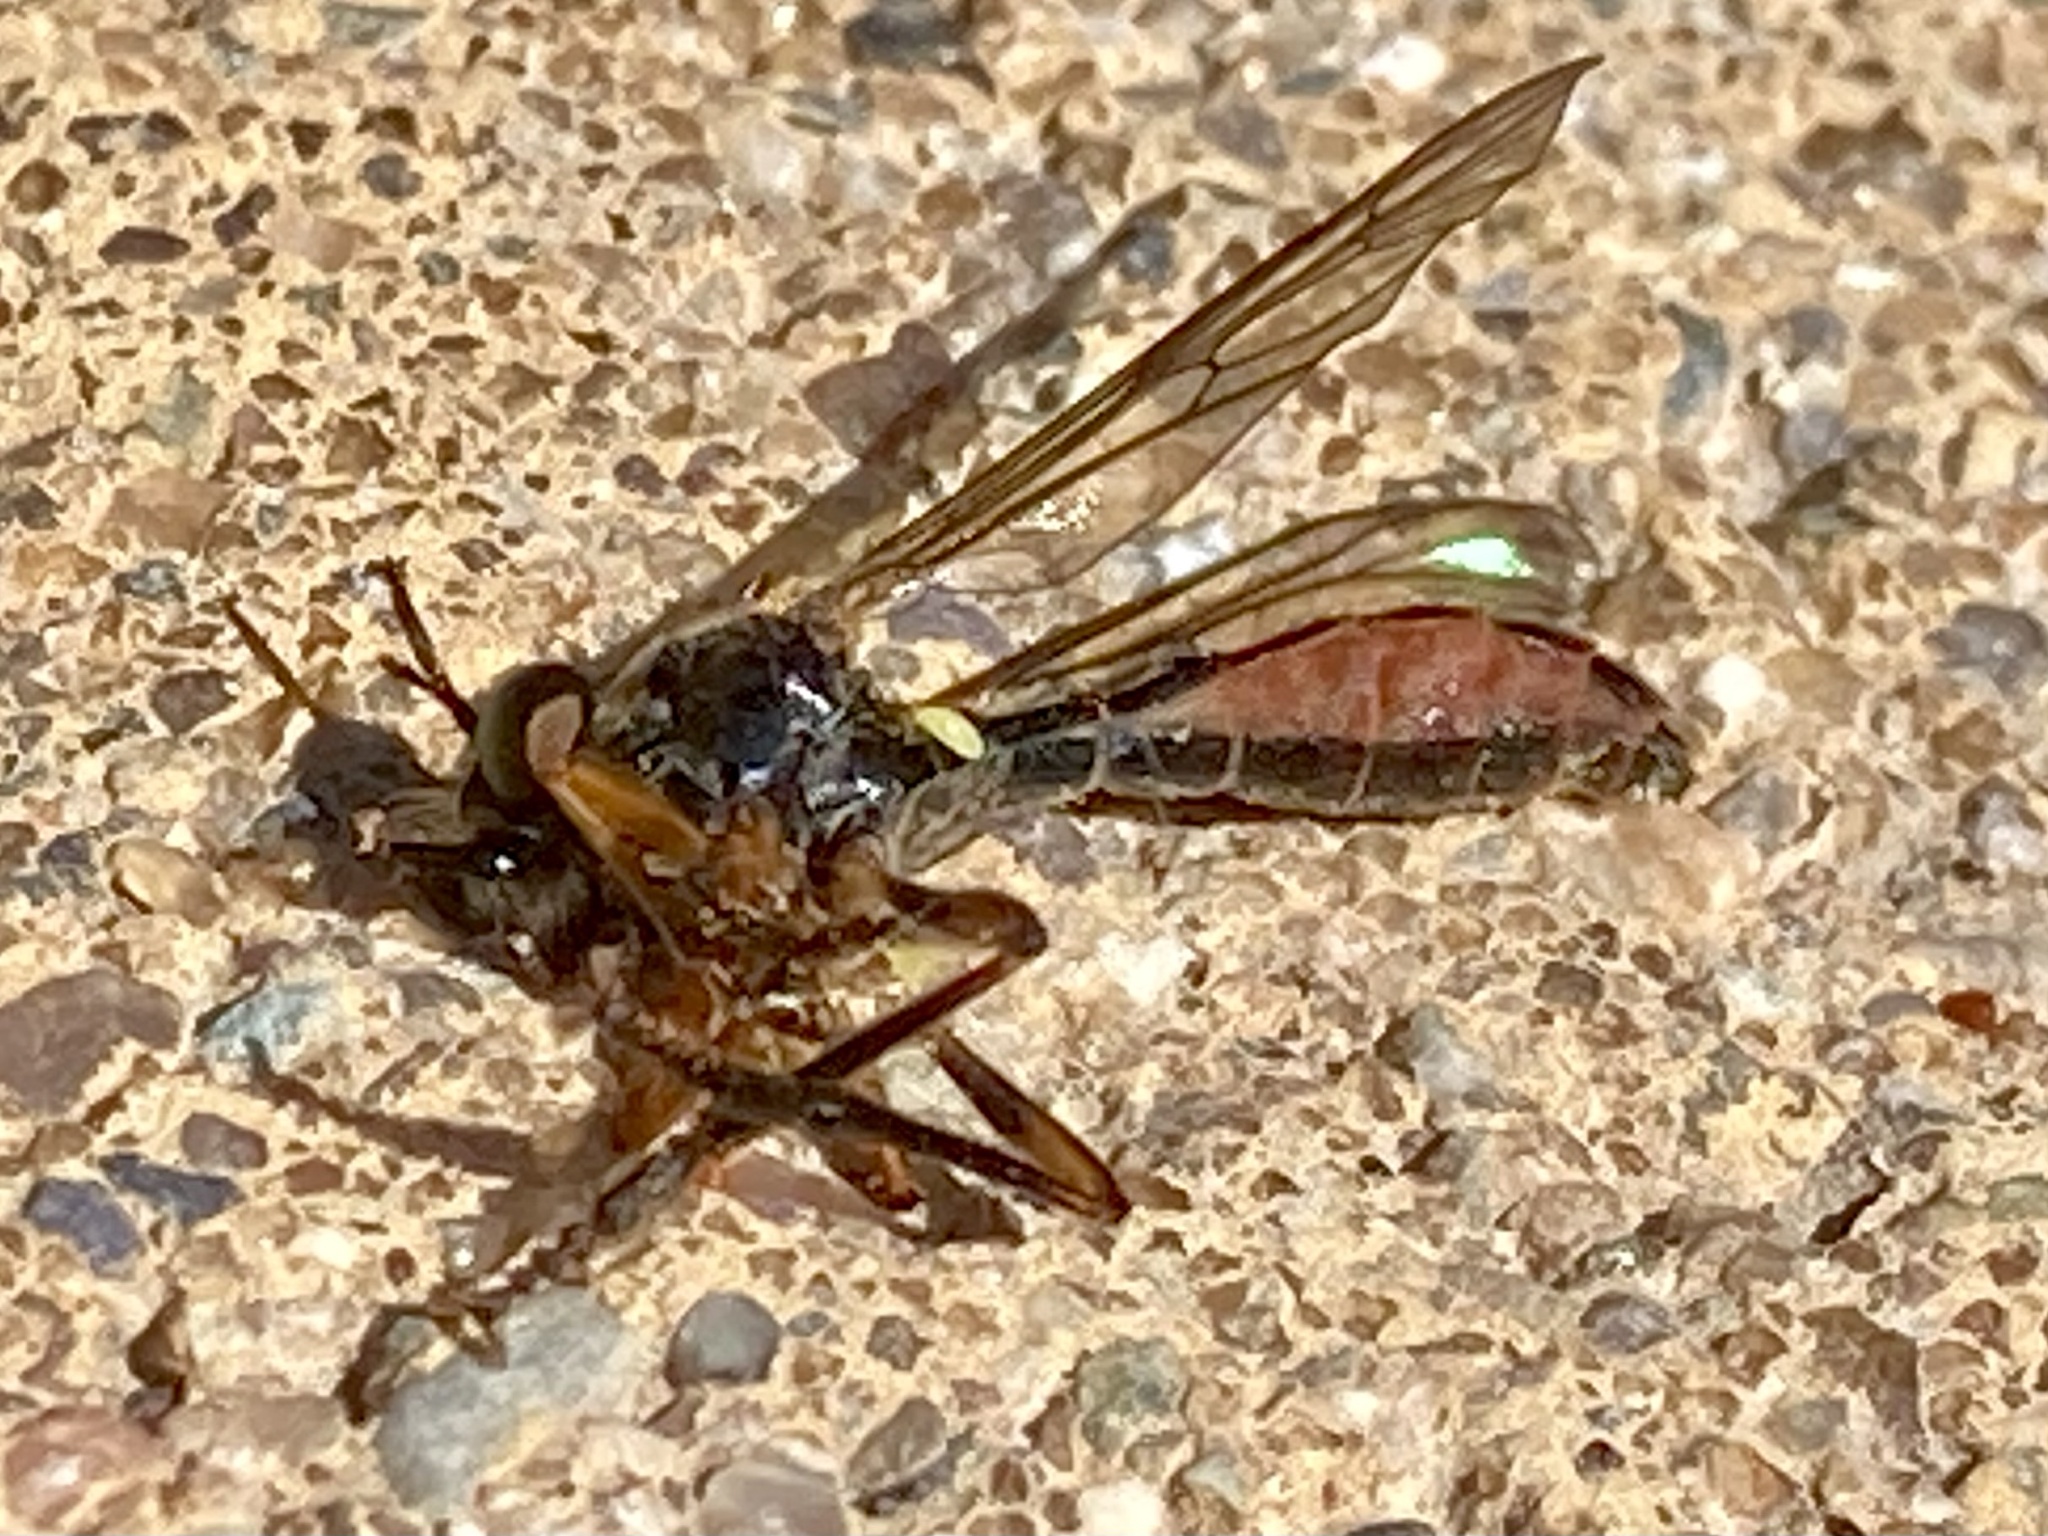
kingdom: Animalia
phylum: Arthropoda
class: Insecta
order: Diptera
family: Asilidae
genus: Dioctria
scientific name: Dioctria hyalipennis
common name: Stripe-legged robberfly
